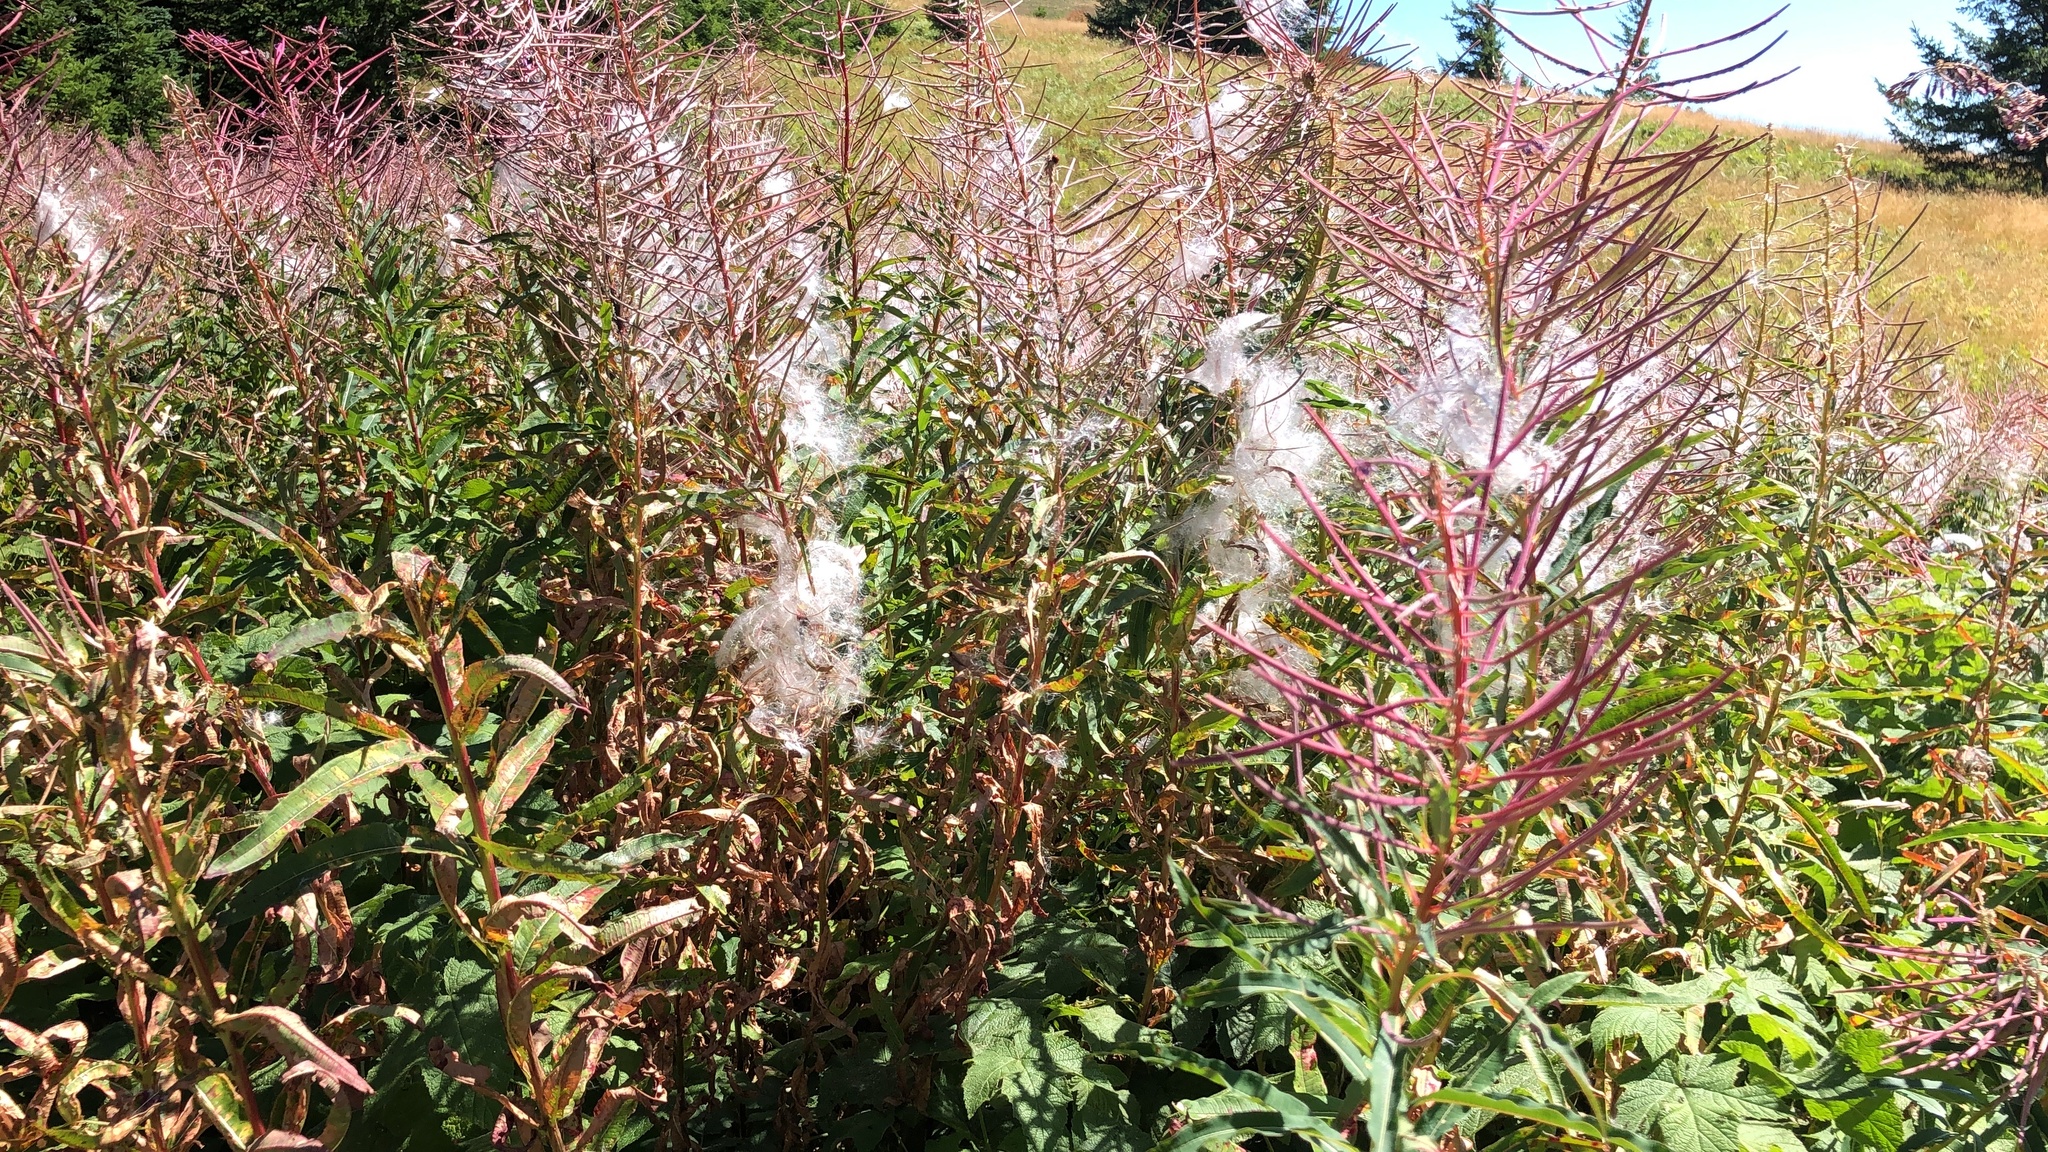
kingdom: Plantae
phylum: Tracheophyta
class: Magnoliopsida
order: Myrtales
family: Onagraceae
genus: Chamaenerion
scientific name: Chamaenerion angustifolium
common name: Fireweed
